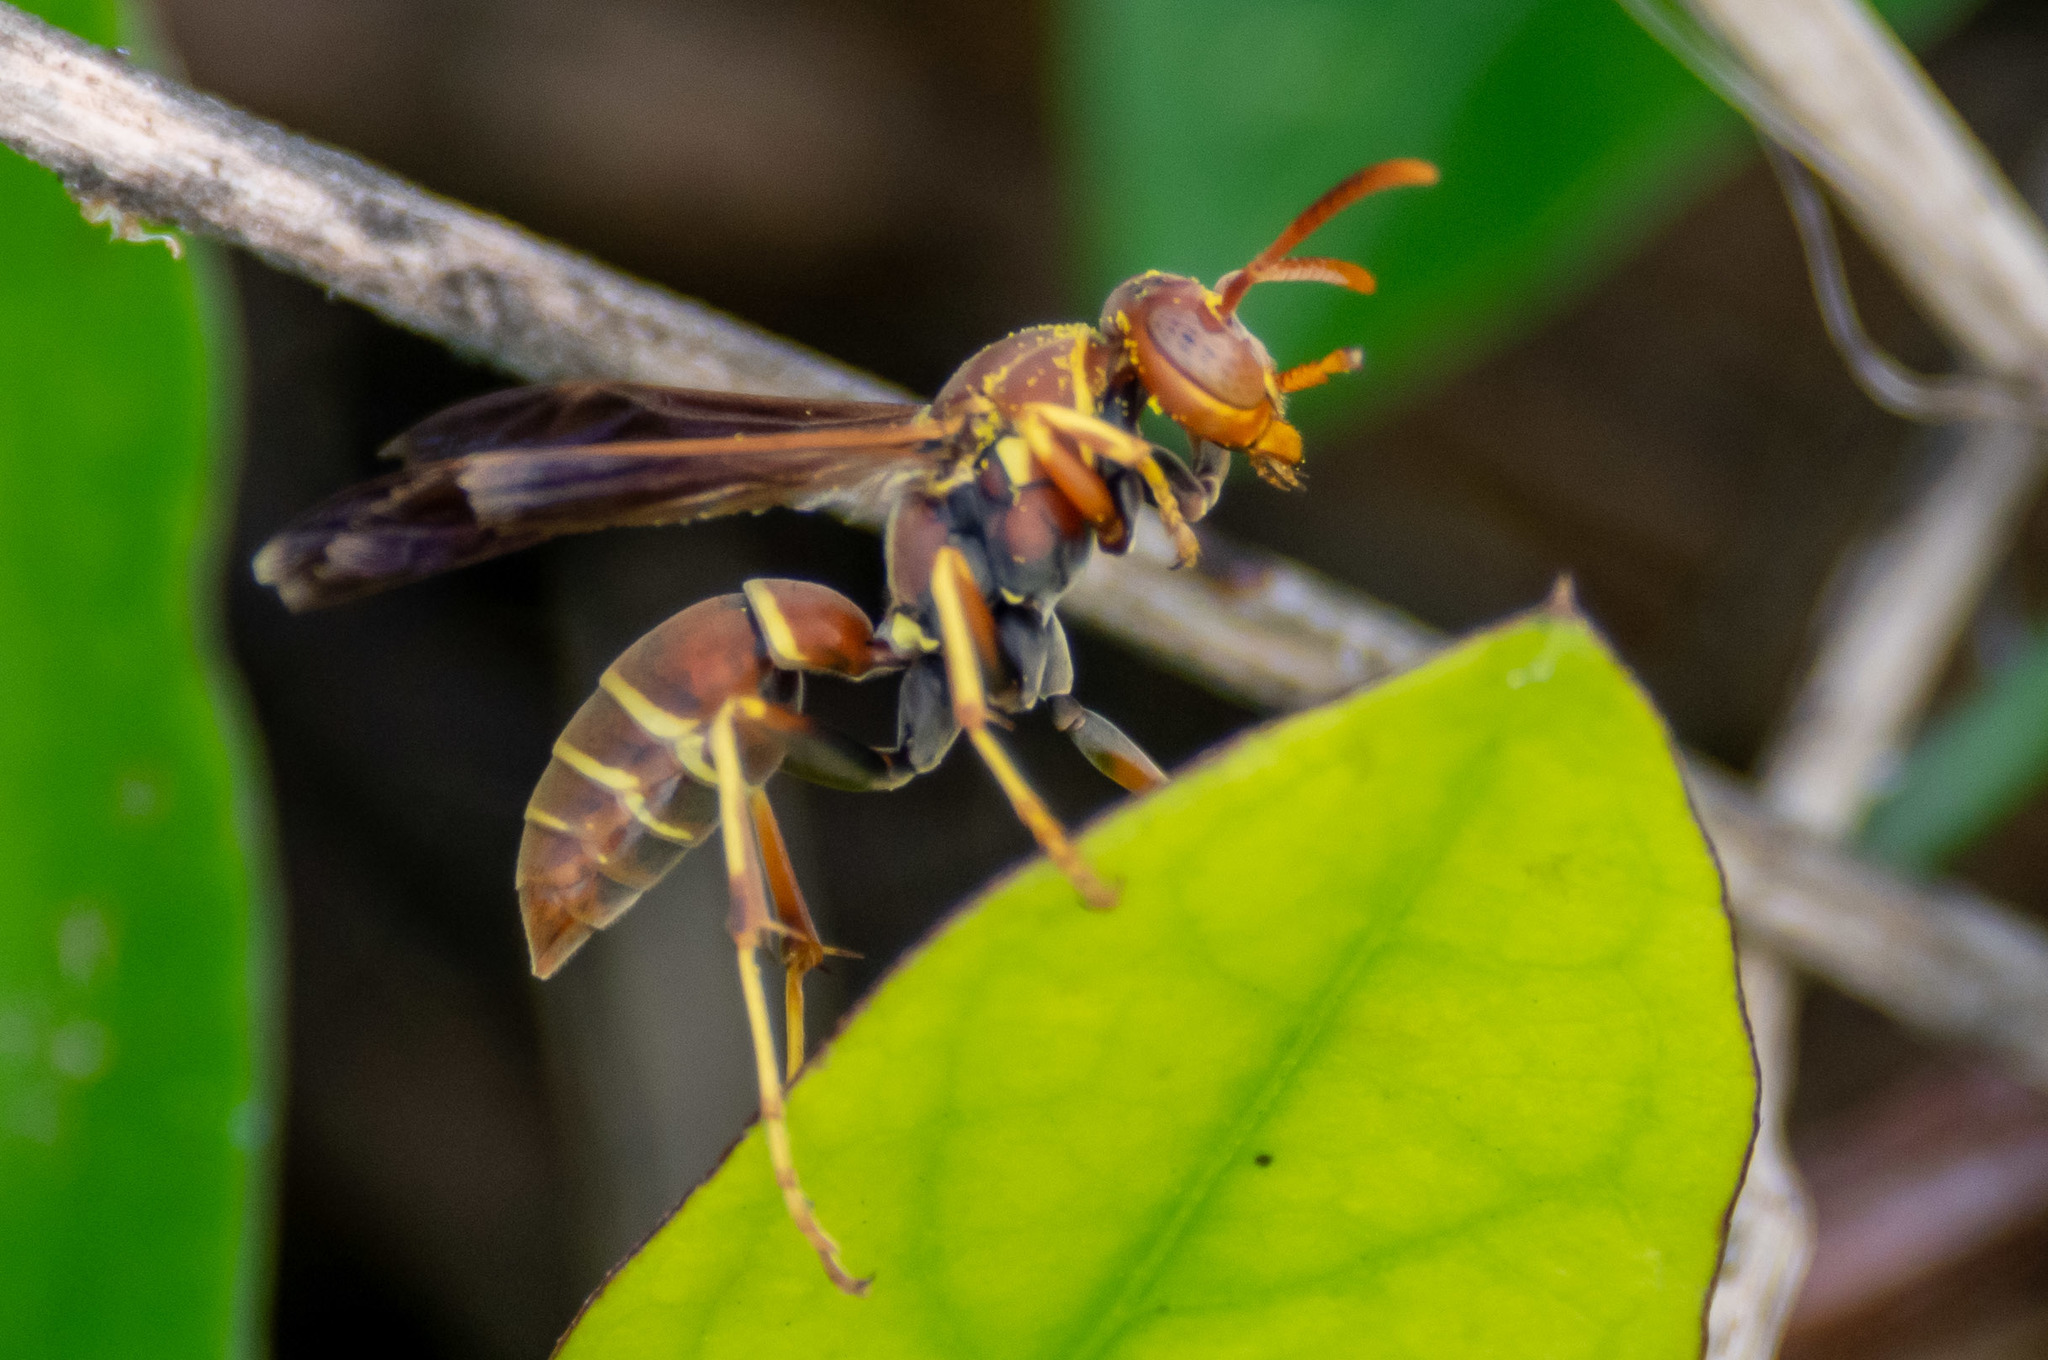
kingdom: Animalia
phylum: Arthropoda
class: Insecta
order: Hymenoptera
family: Eumenidae
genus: Polistes
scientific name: Polistes dorsalis
